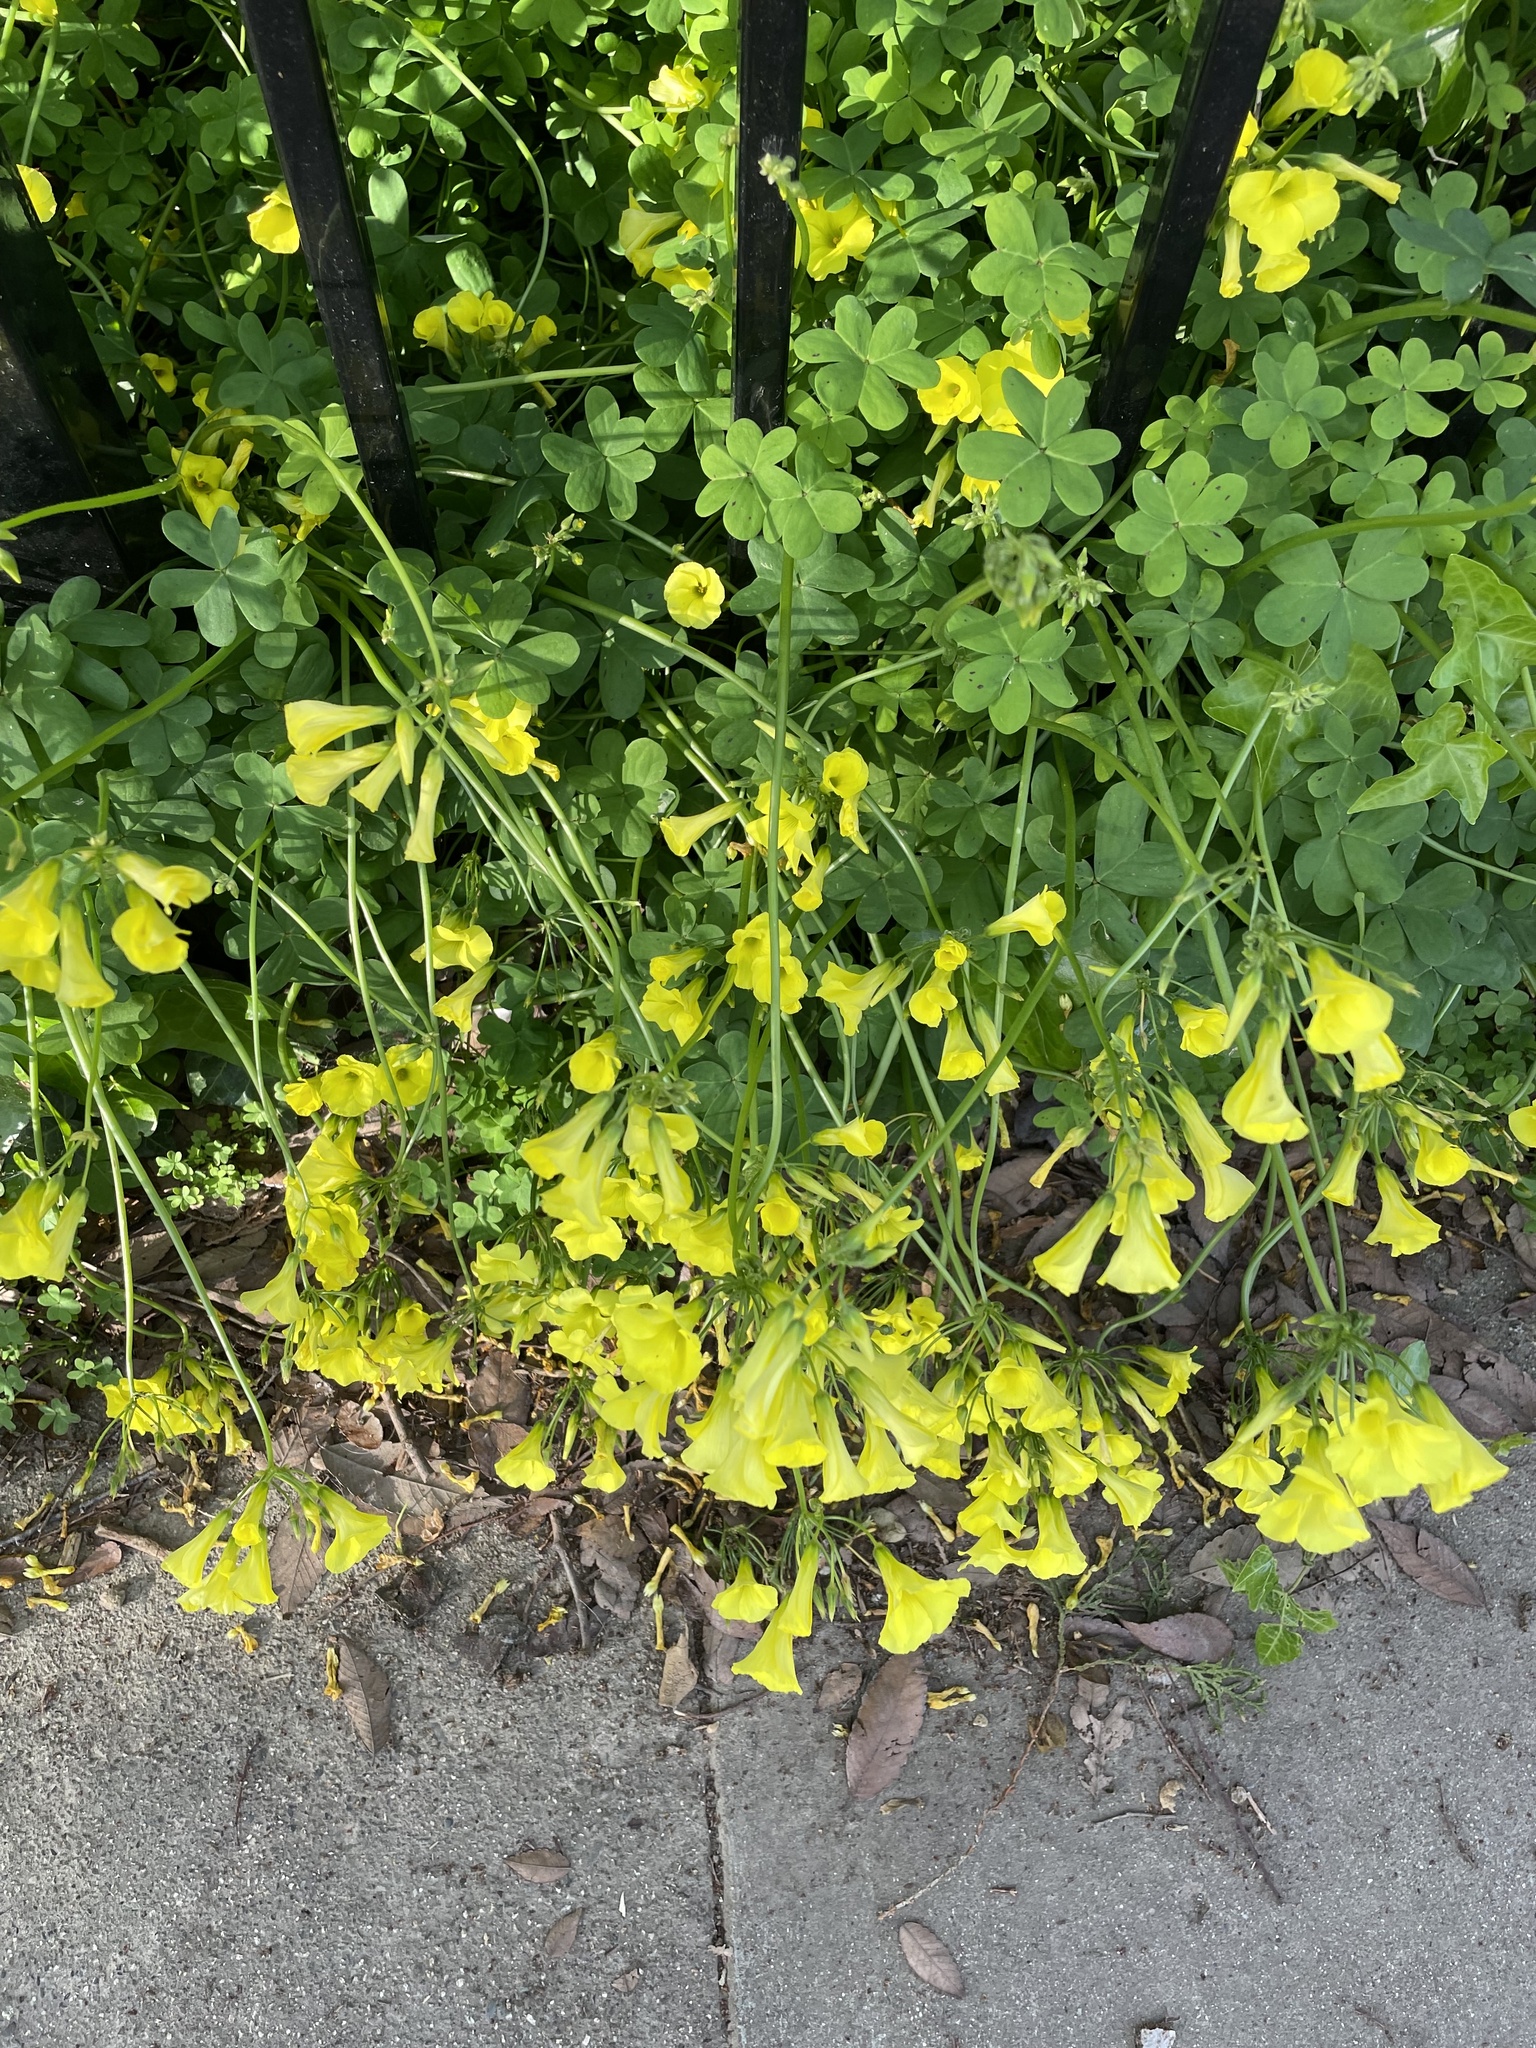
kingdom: Plantae
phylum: Tracheophyta
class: Magnoliopsida
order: Oxalidales
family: Oxalidaceae
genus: Oxalis
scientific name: Oxalis pes-caprae
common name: Bermuda-buttercup
